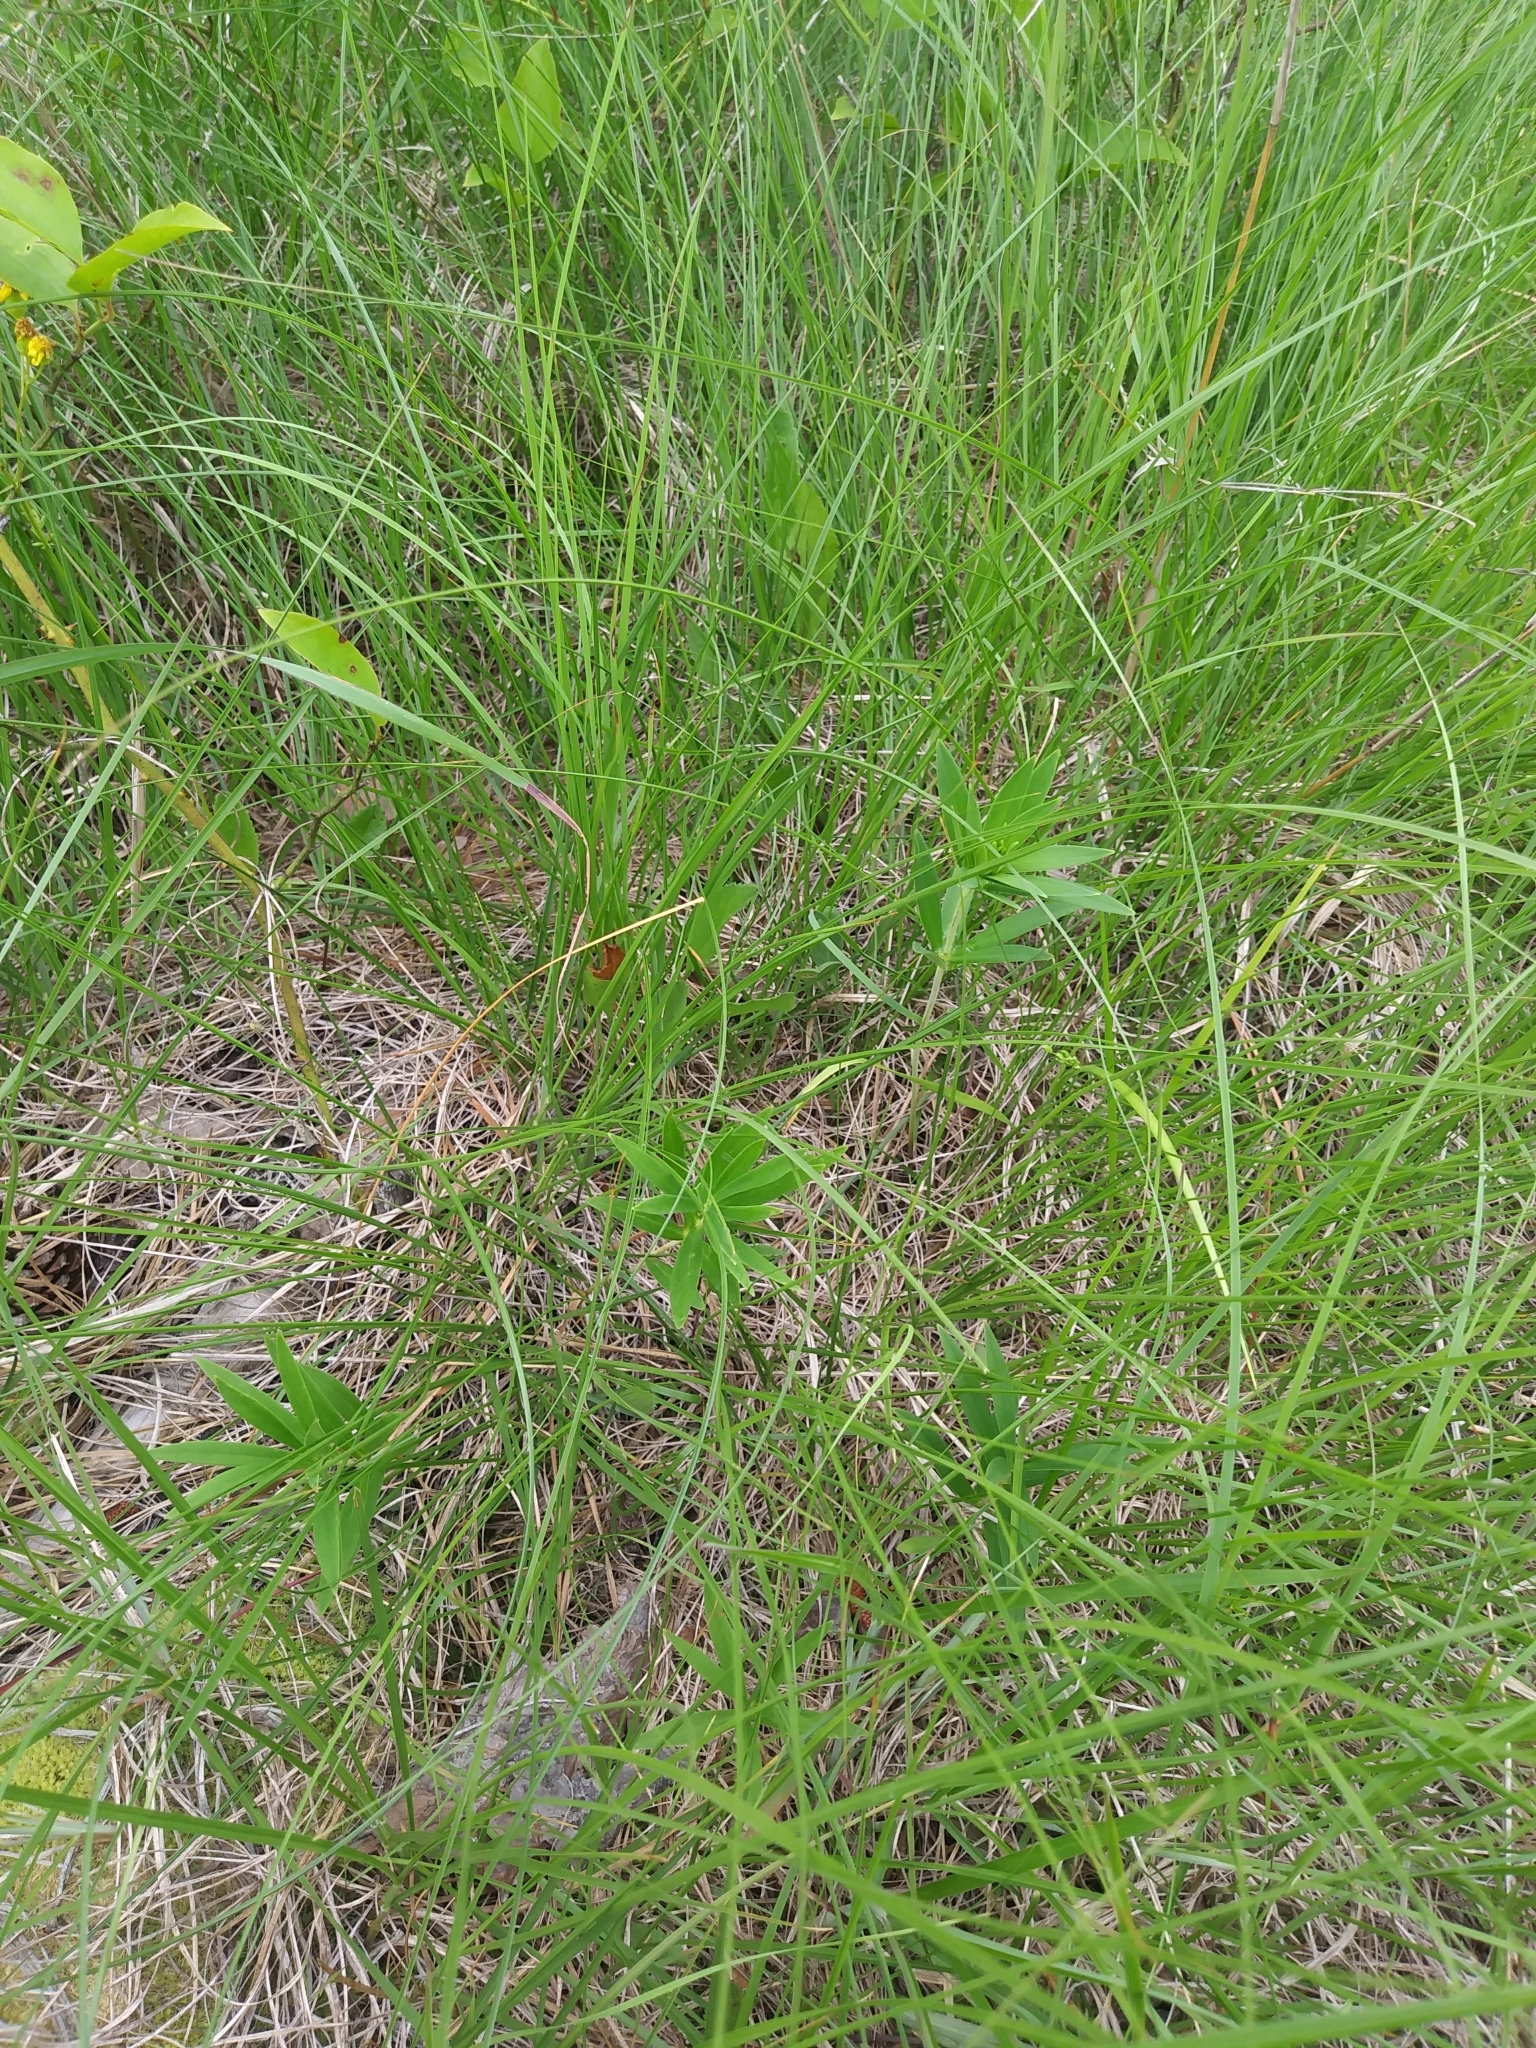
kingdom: Plantae
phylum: Tracheophyta
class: Liliopsida
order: Liliales
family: Liliaceae
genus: Lilium
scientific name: Lilium philadelphicum
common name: Red lily
